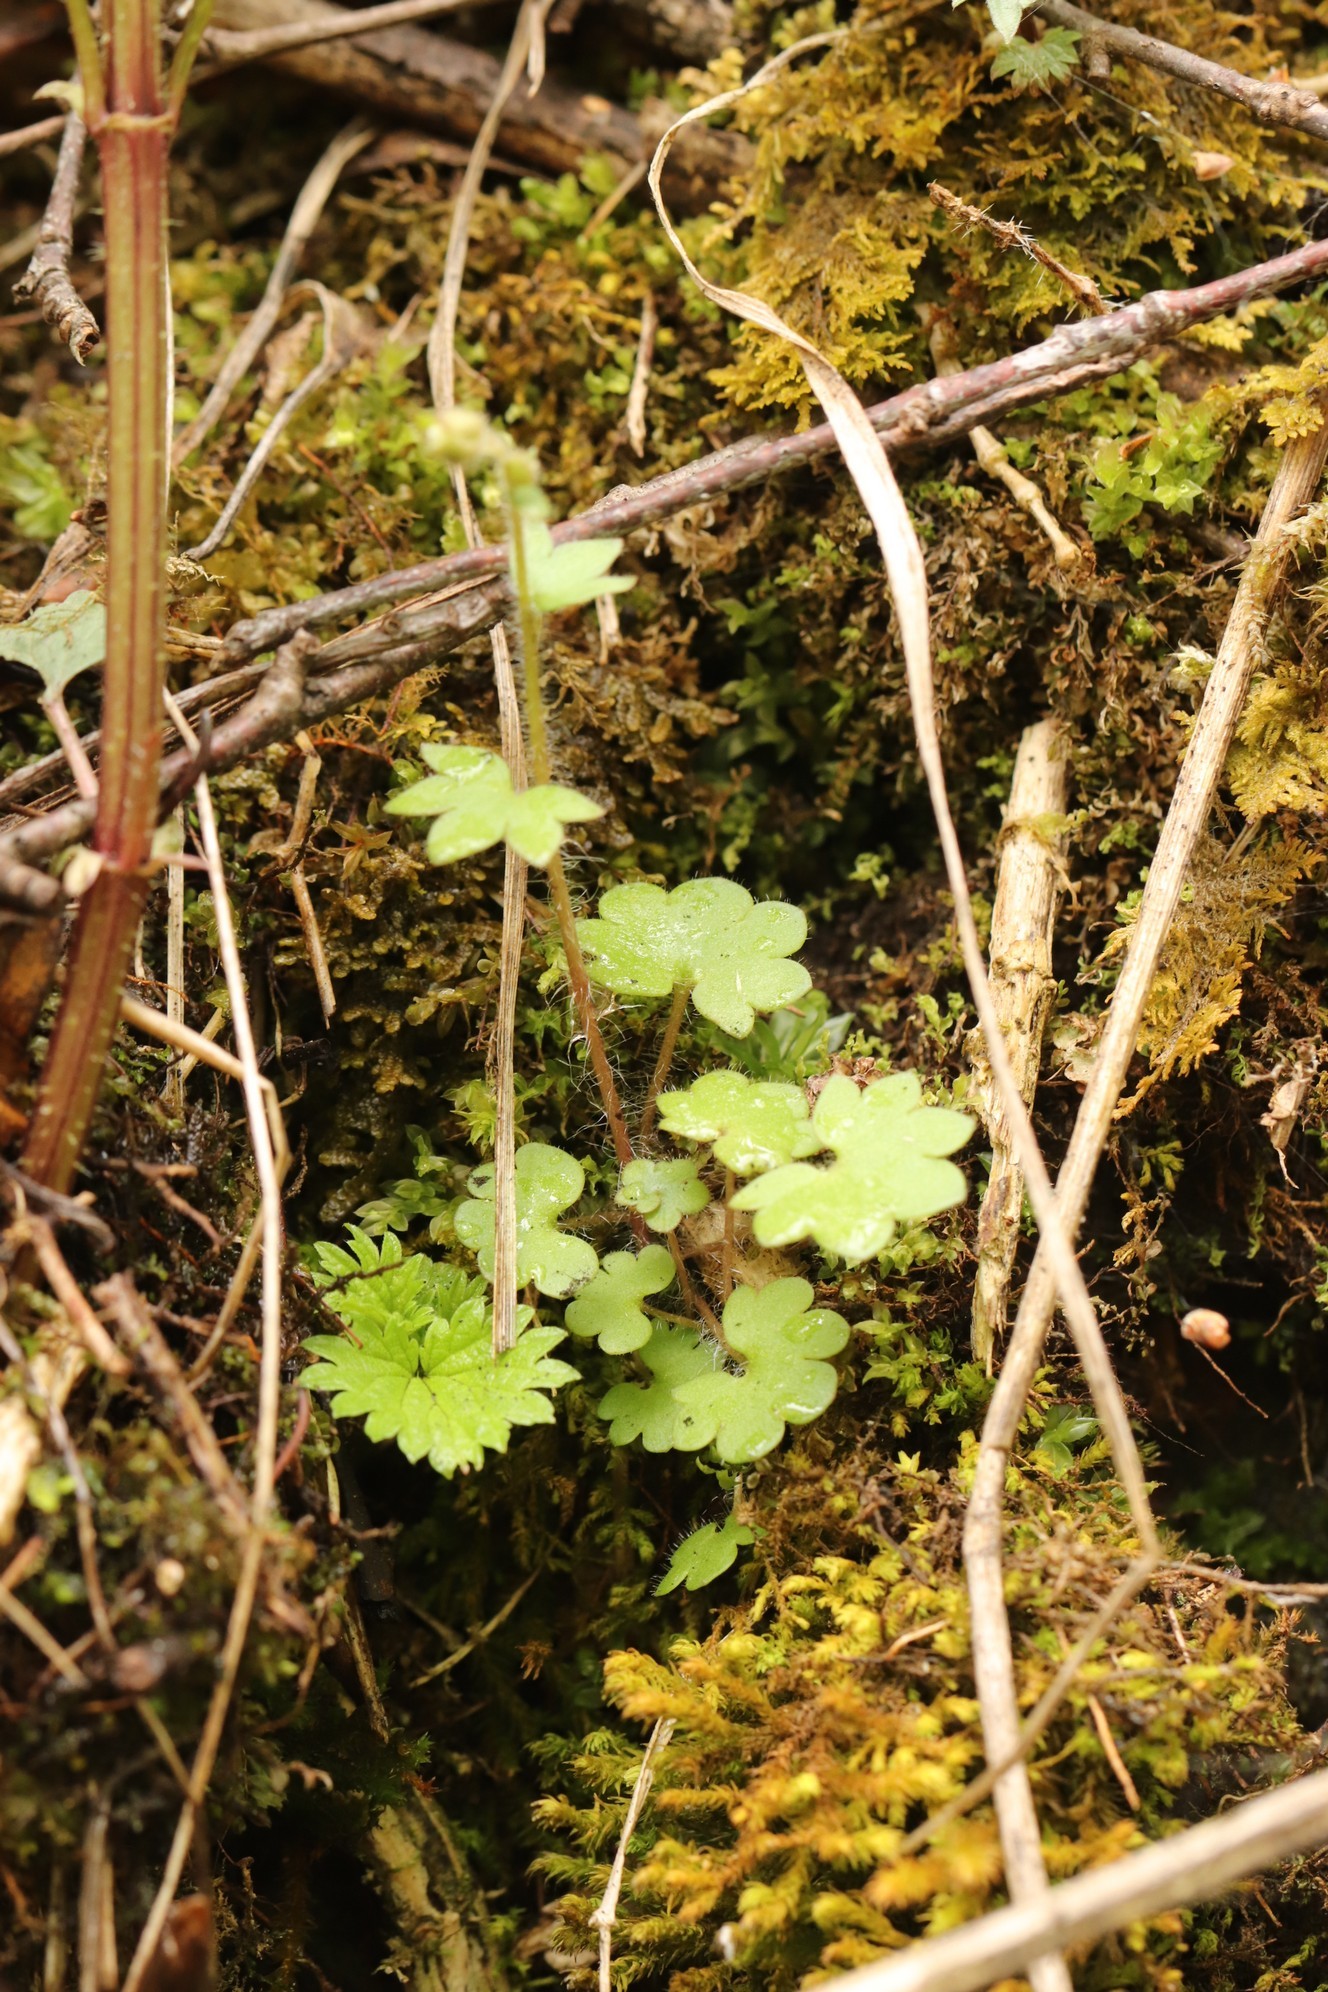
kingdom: Plantae
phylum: Tracheophyta
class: Magnoliopsida
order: Saxifragales
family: Saxifragaceae
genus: Saxifraga
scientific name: Saxifraga sibirica
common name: Siberian saxifrage
